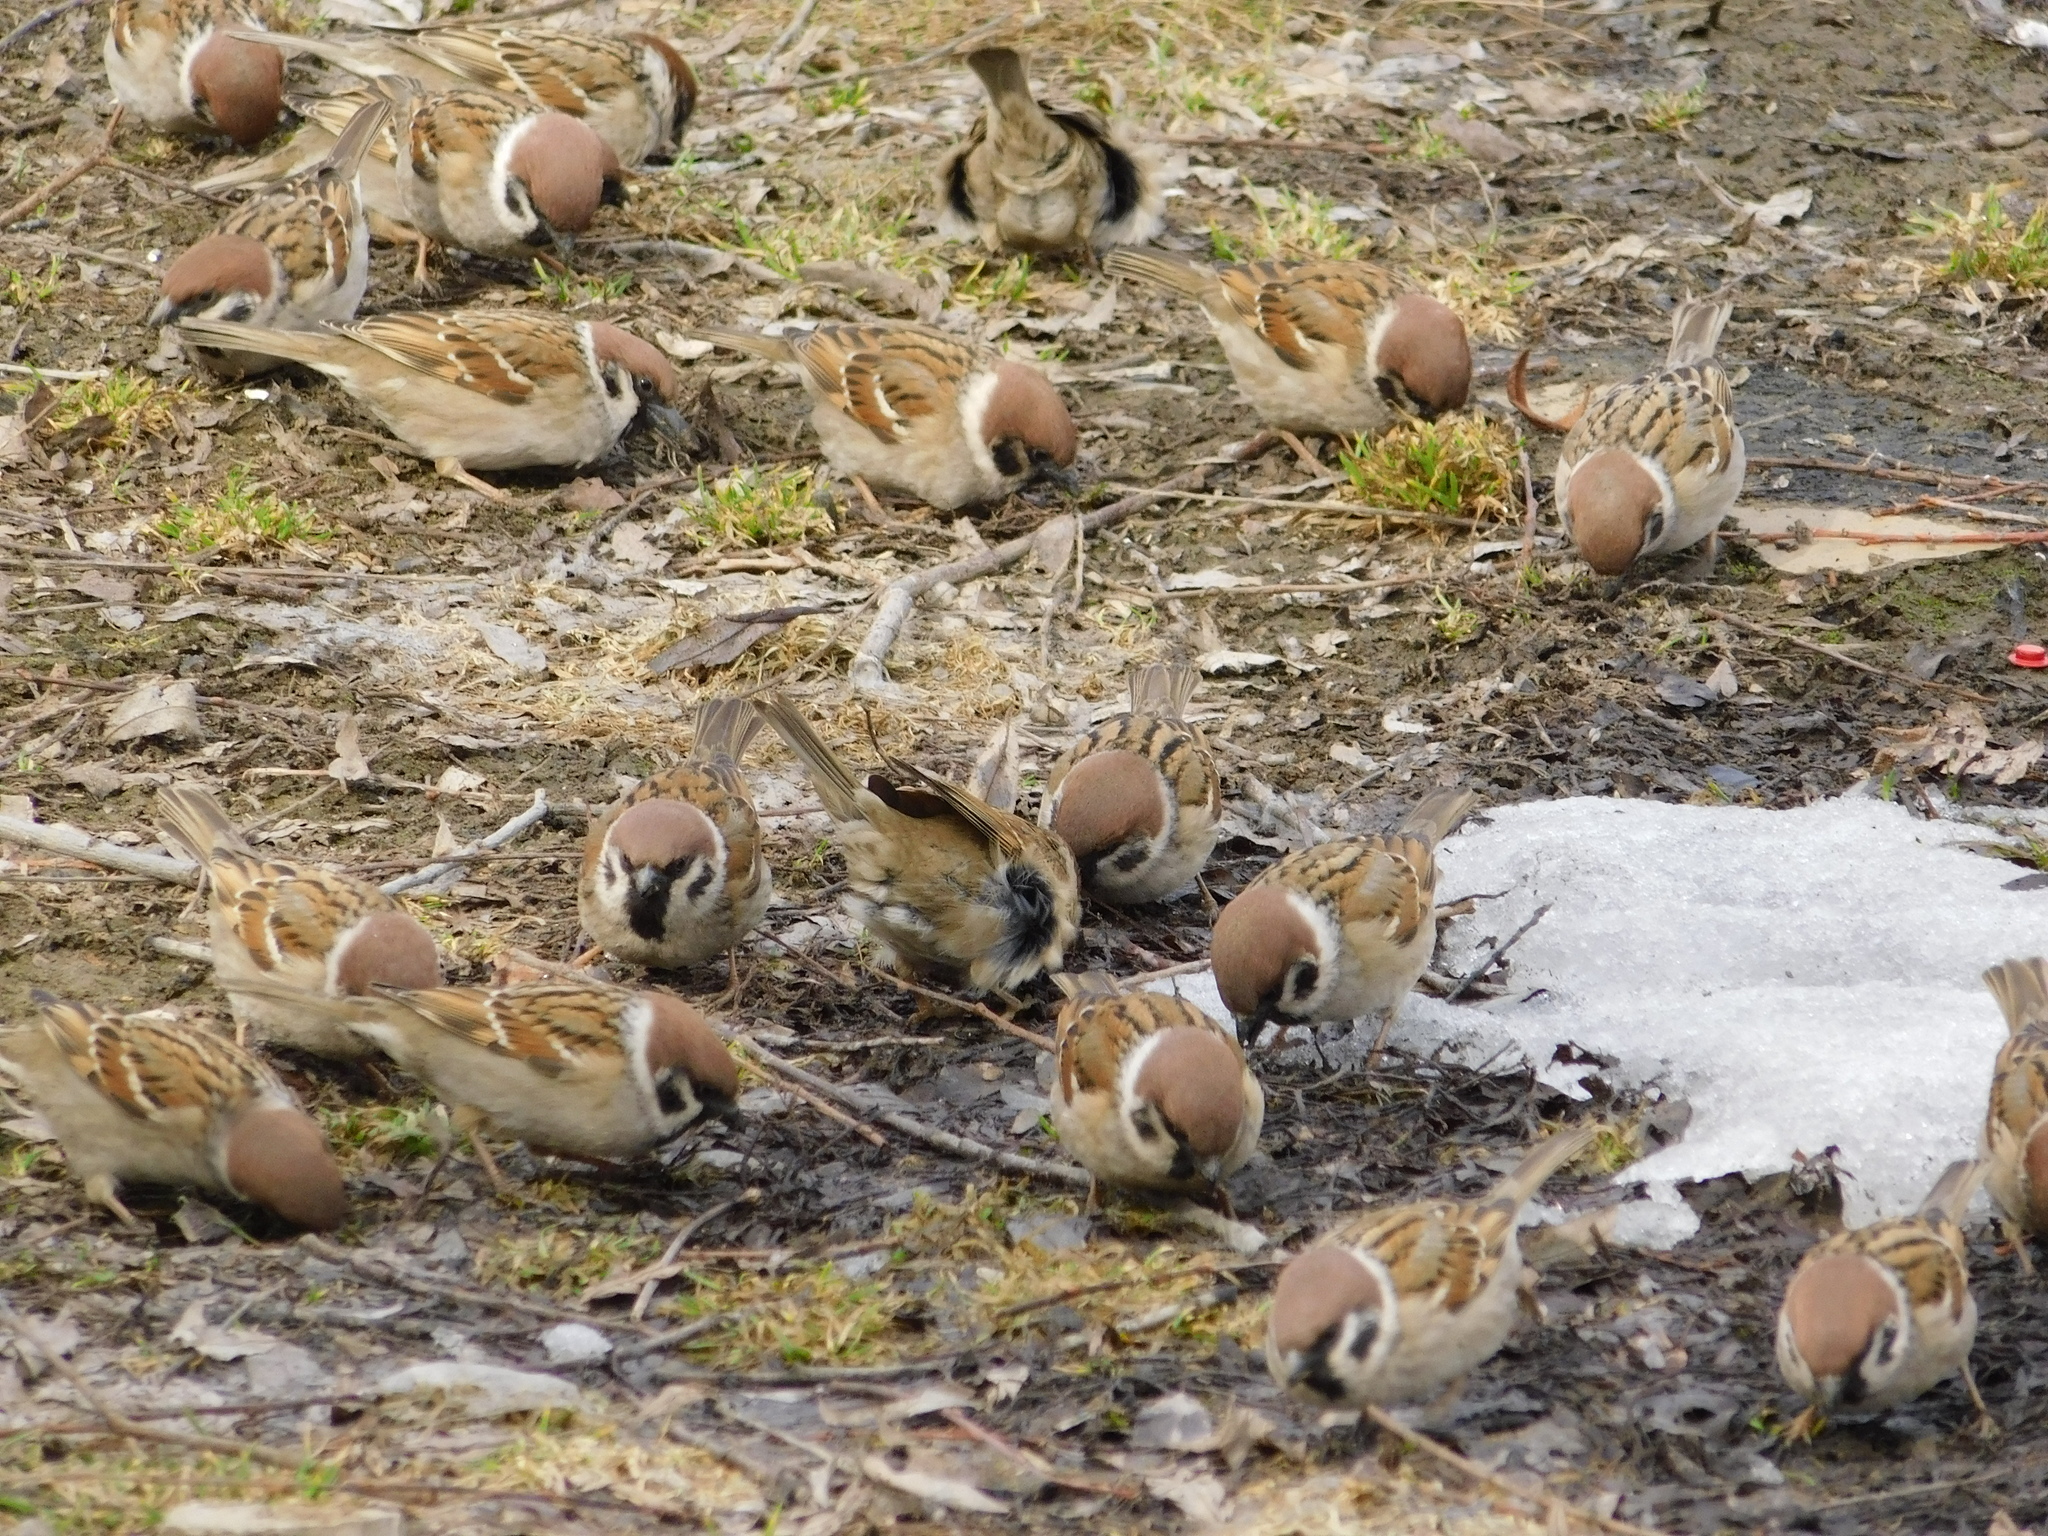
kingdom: Animalia
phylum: Chordata
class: Aves
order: Passeriformes
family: Passeridae
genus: Passer
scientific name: Passer montanus
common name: Eurasian tree sparrow
